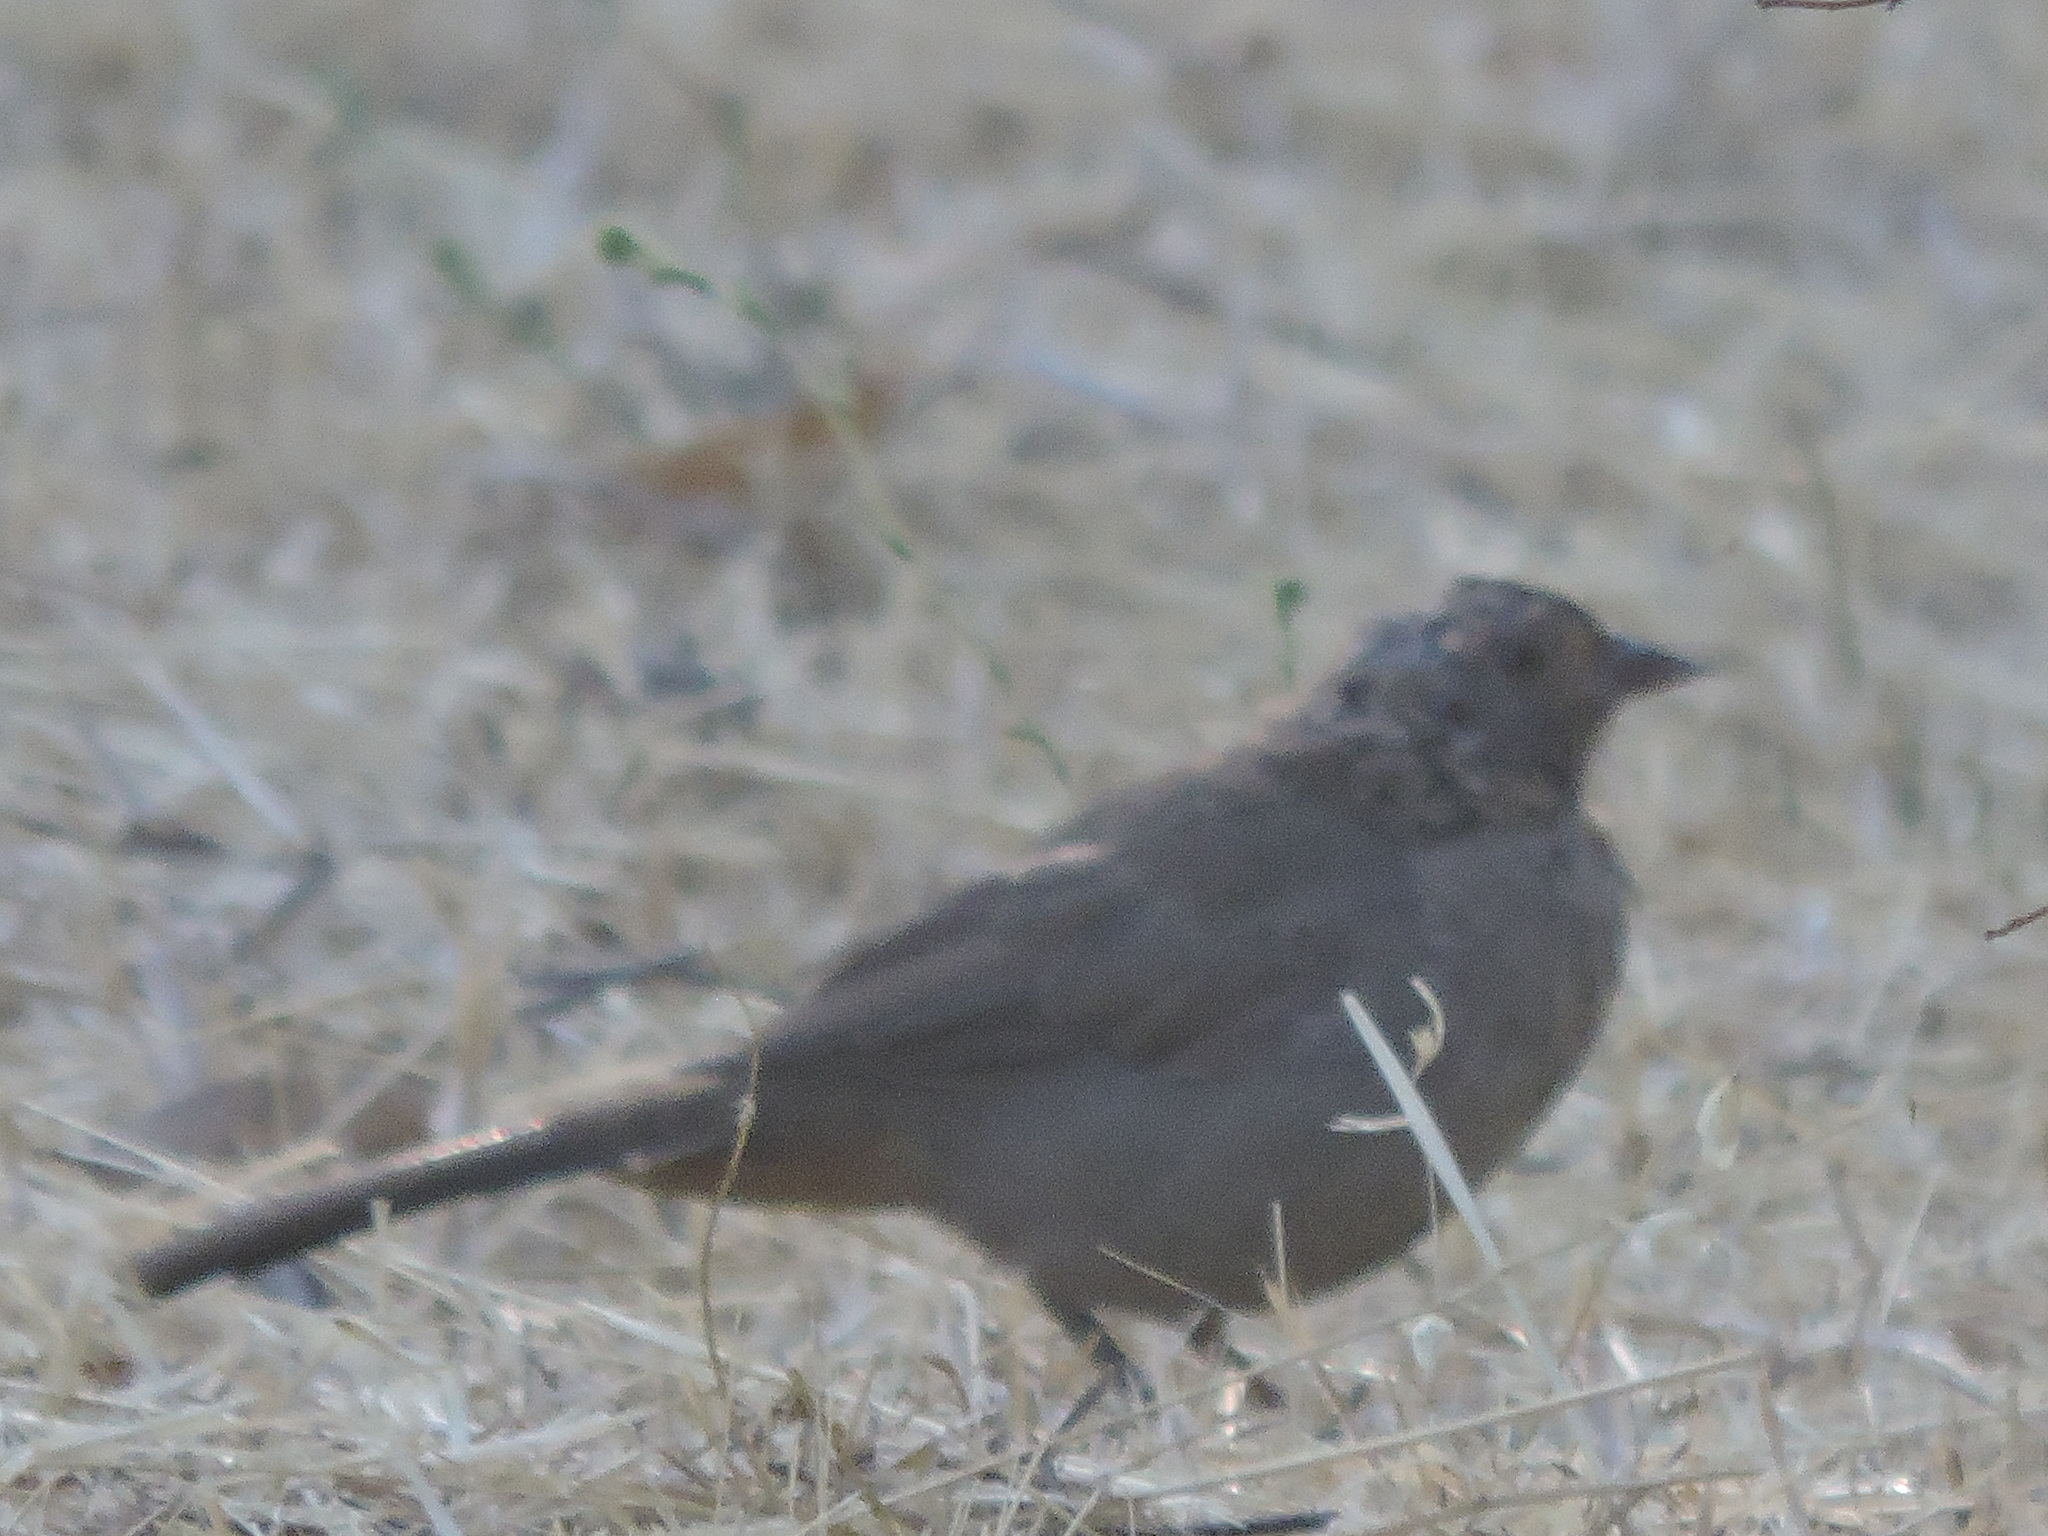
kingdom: Animalia
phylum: Chordata
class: Aves
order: Passeriformes
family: Passerellidae
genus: Melozone
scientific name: Melozone crissalis
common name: California towhee
